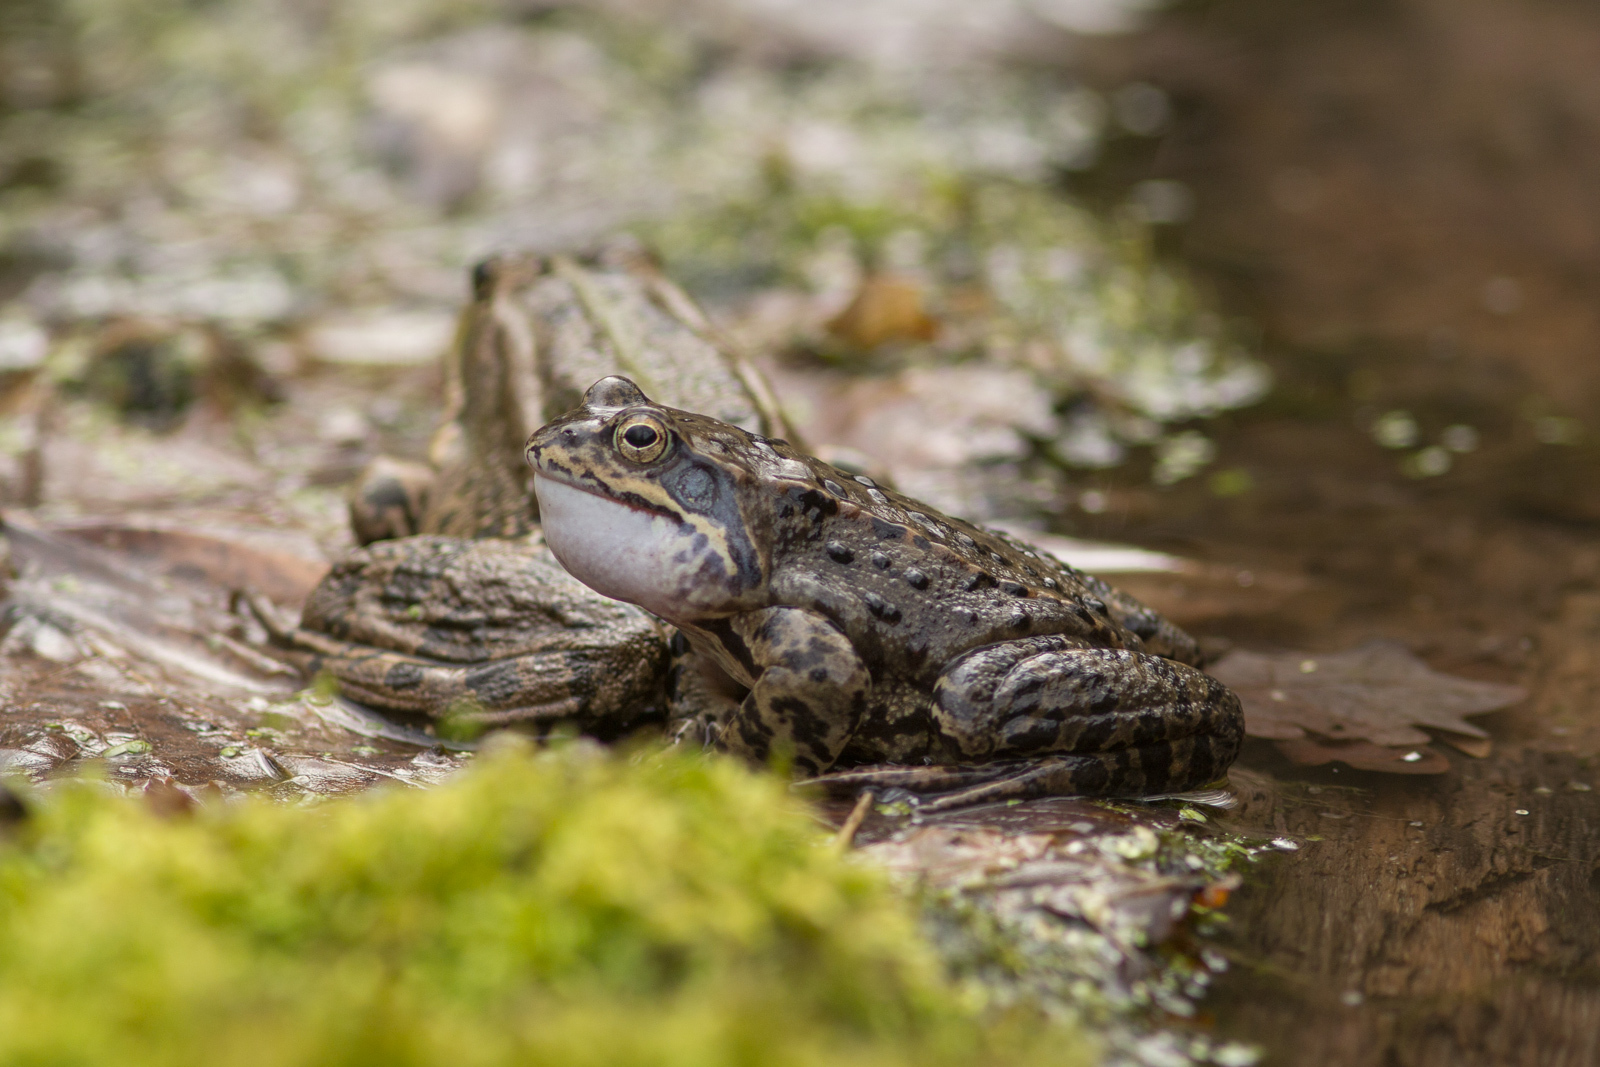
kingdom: Animalia
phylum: Chordata
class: Amphibia
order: Anura
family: Ranidae
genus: Rana
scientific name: Rana temporaria
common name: Common frog
